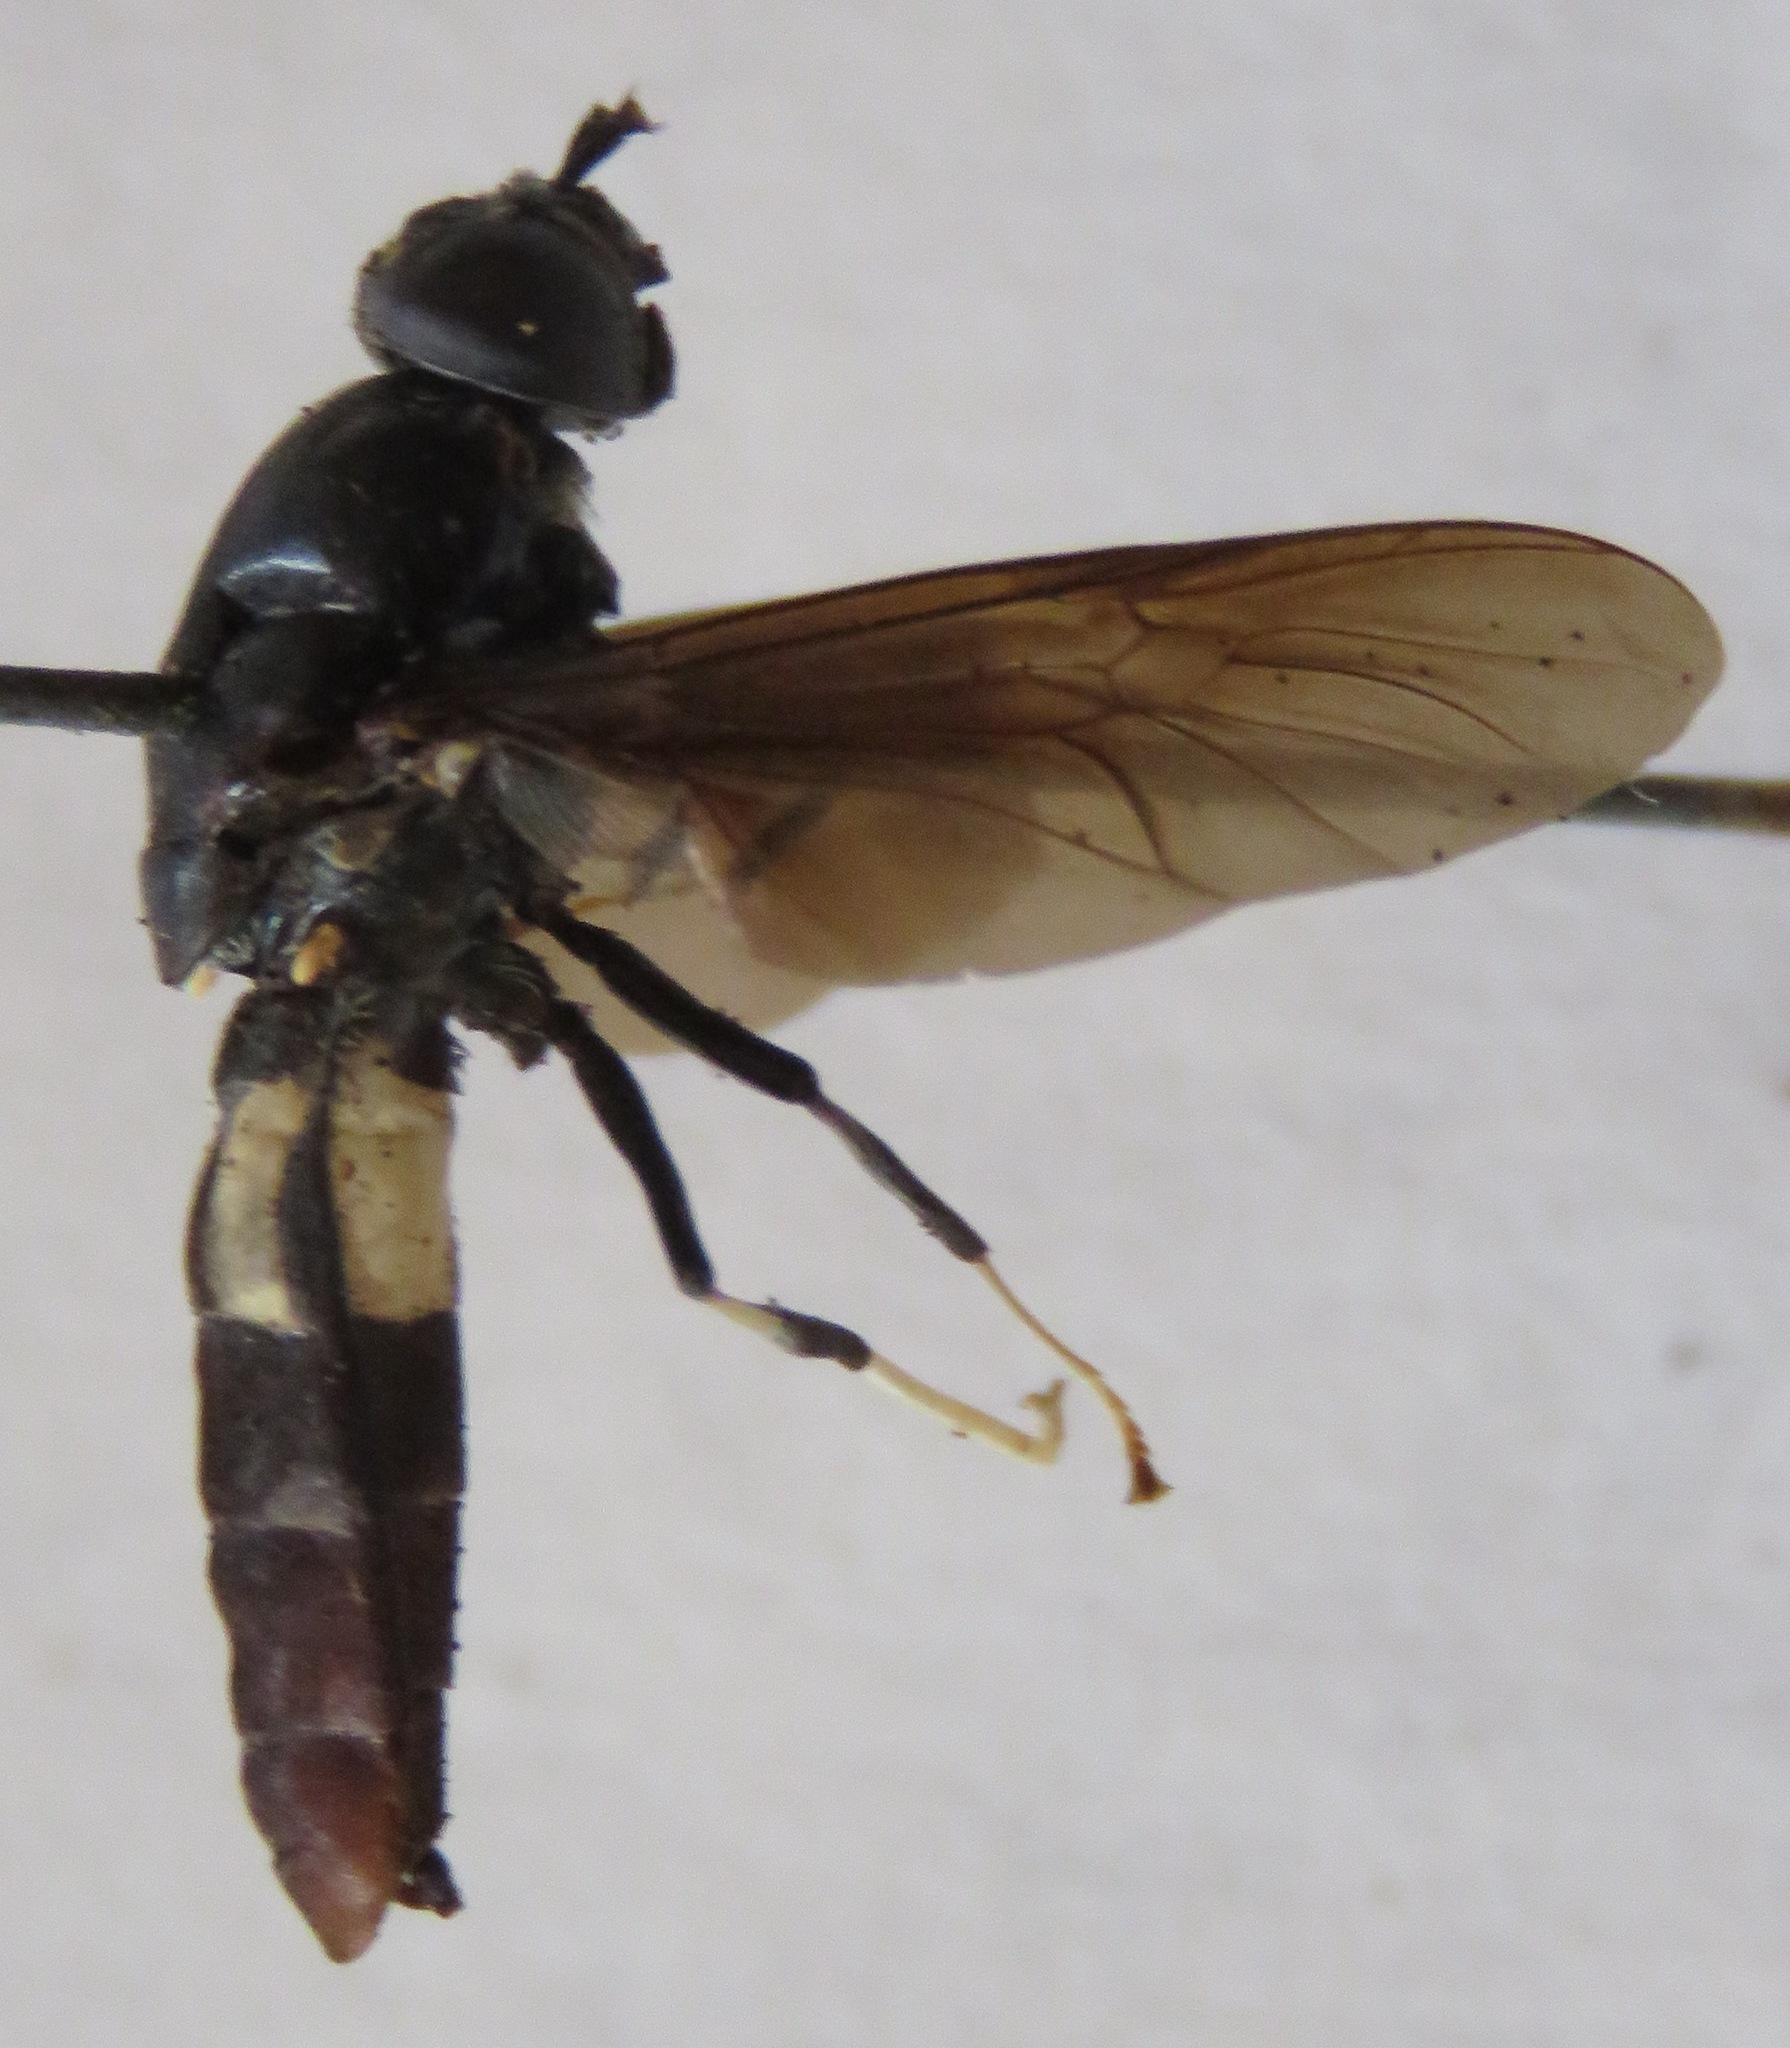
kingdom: Animalia
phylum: Arthropoda
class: Insecta
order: Diptera
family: Stratiomyidae
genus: Hermetia
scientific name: Hermetia illucens
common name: Black soldier fly
